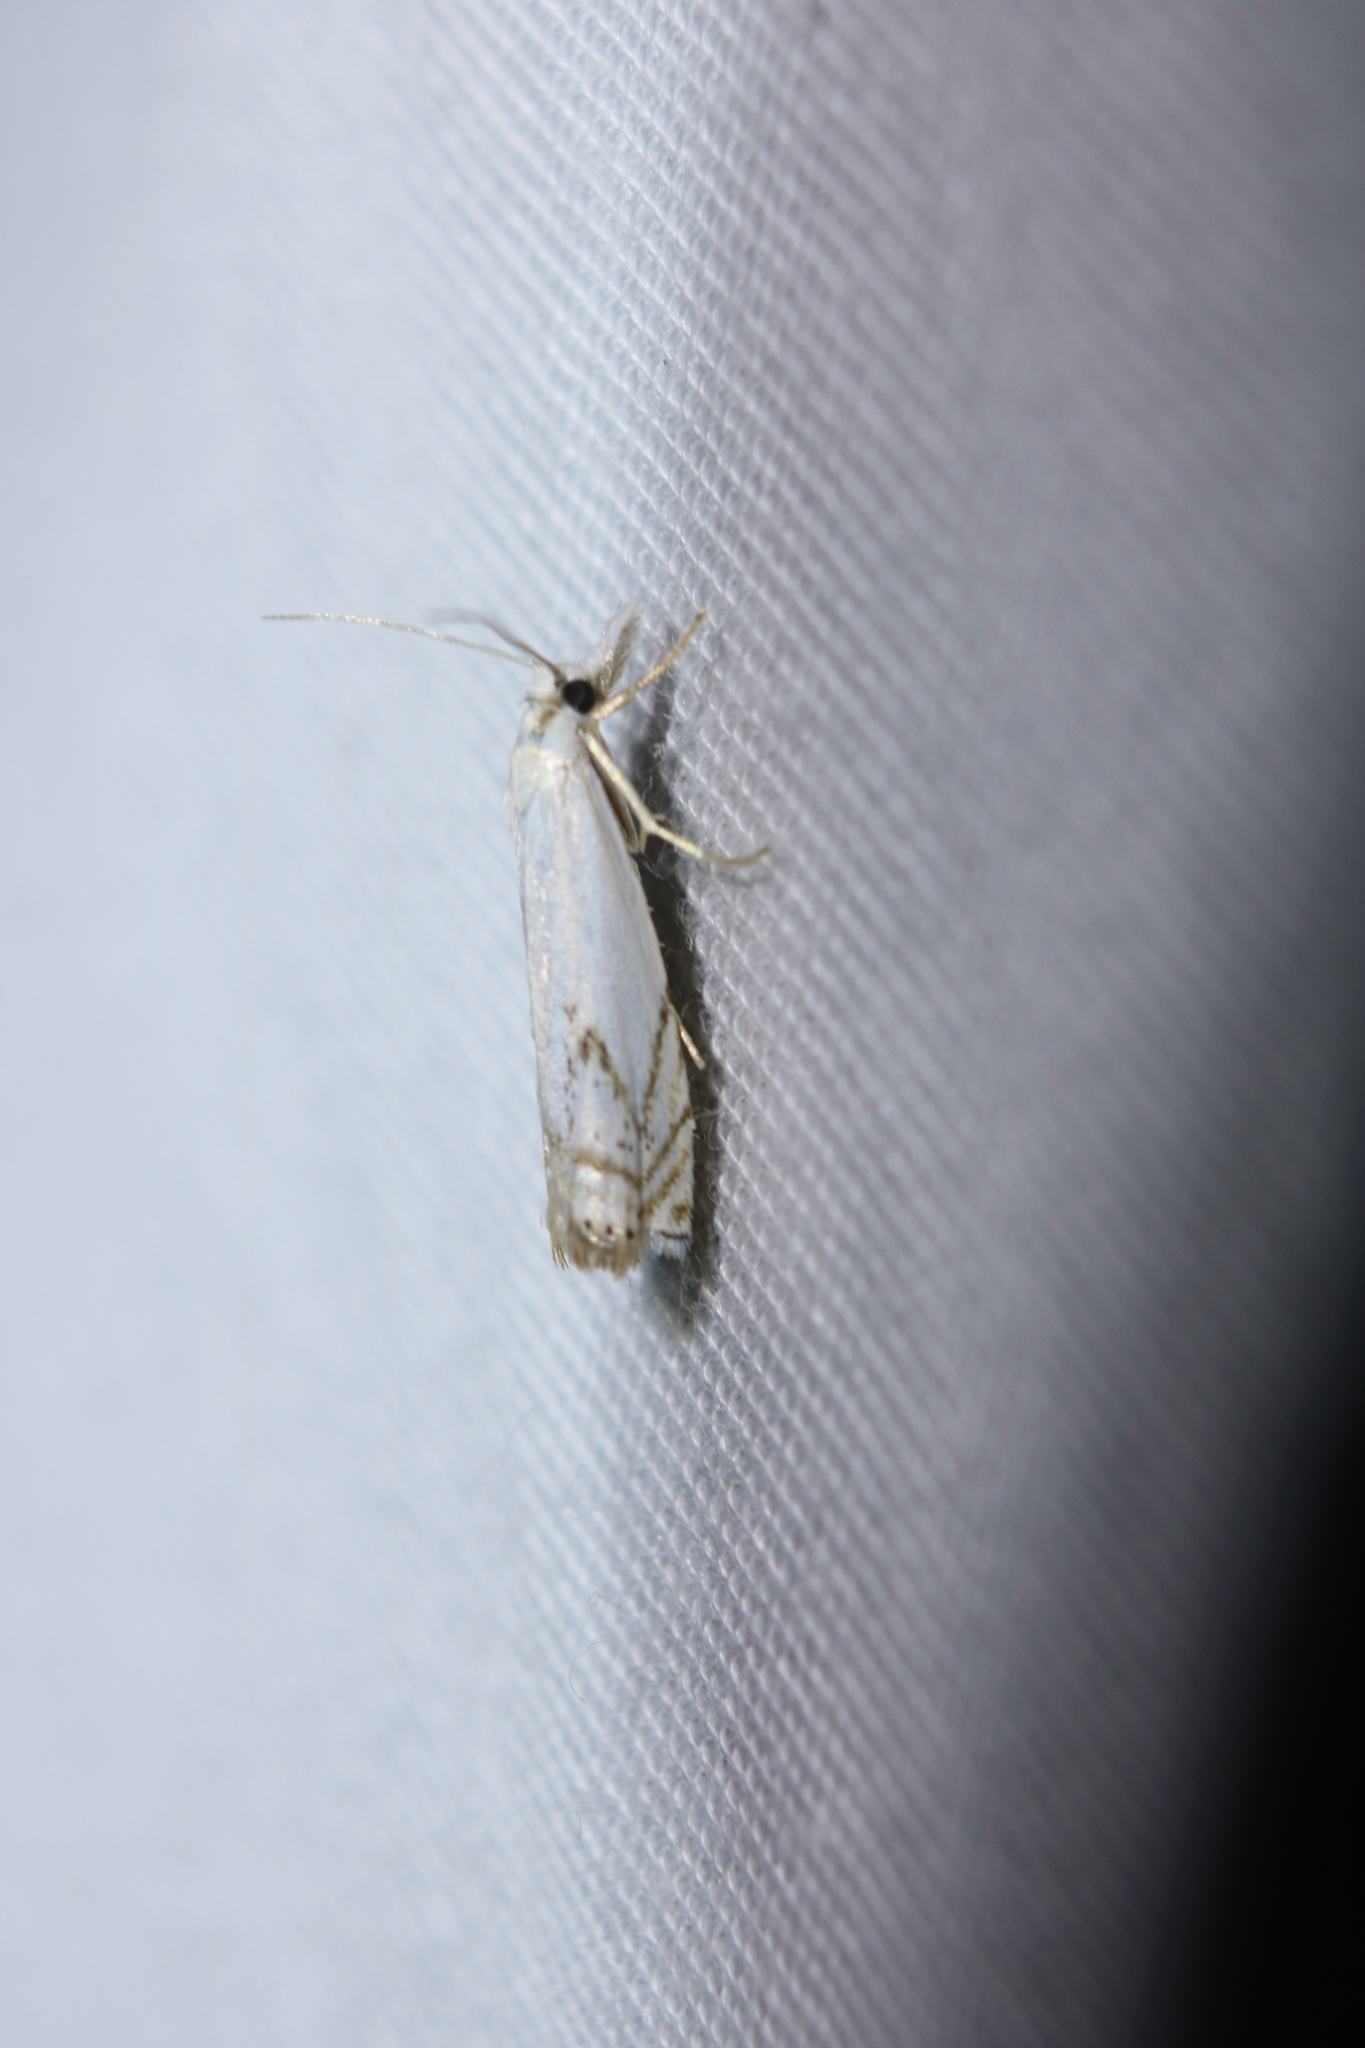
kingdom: Animalia
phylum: Arthropoda
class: Insecta
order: Lepidoptera
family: Crambidae
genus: Crambus
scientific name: Crambus albellus
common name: Small white grass-veneer
